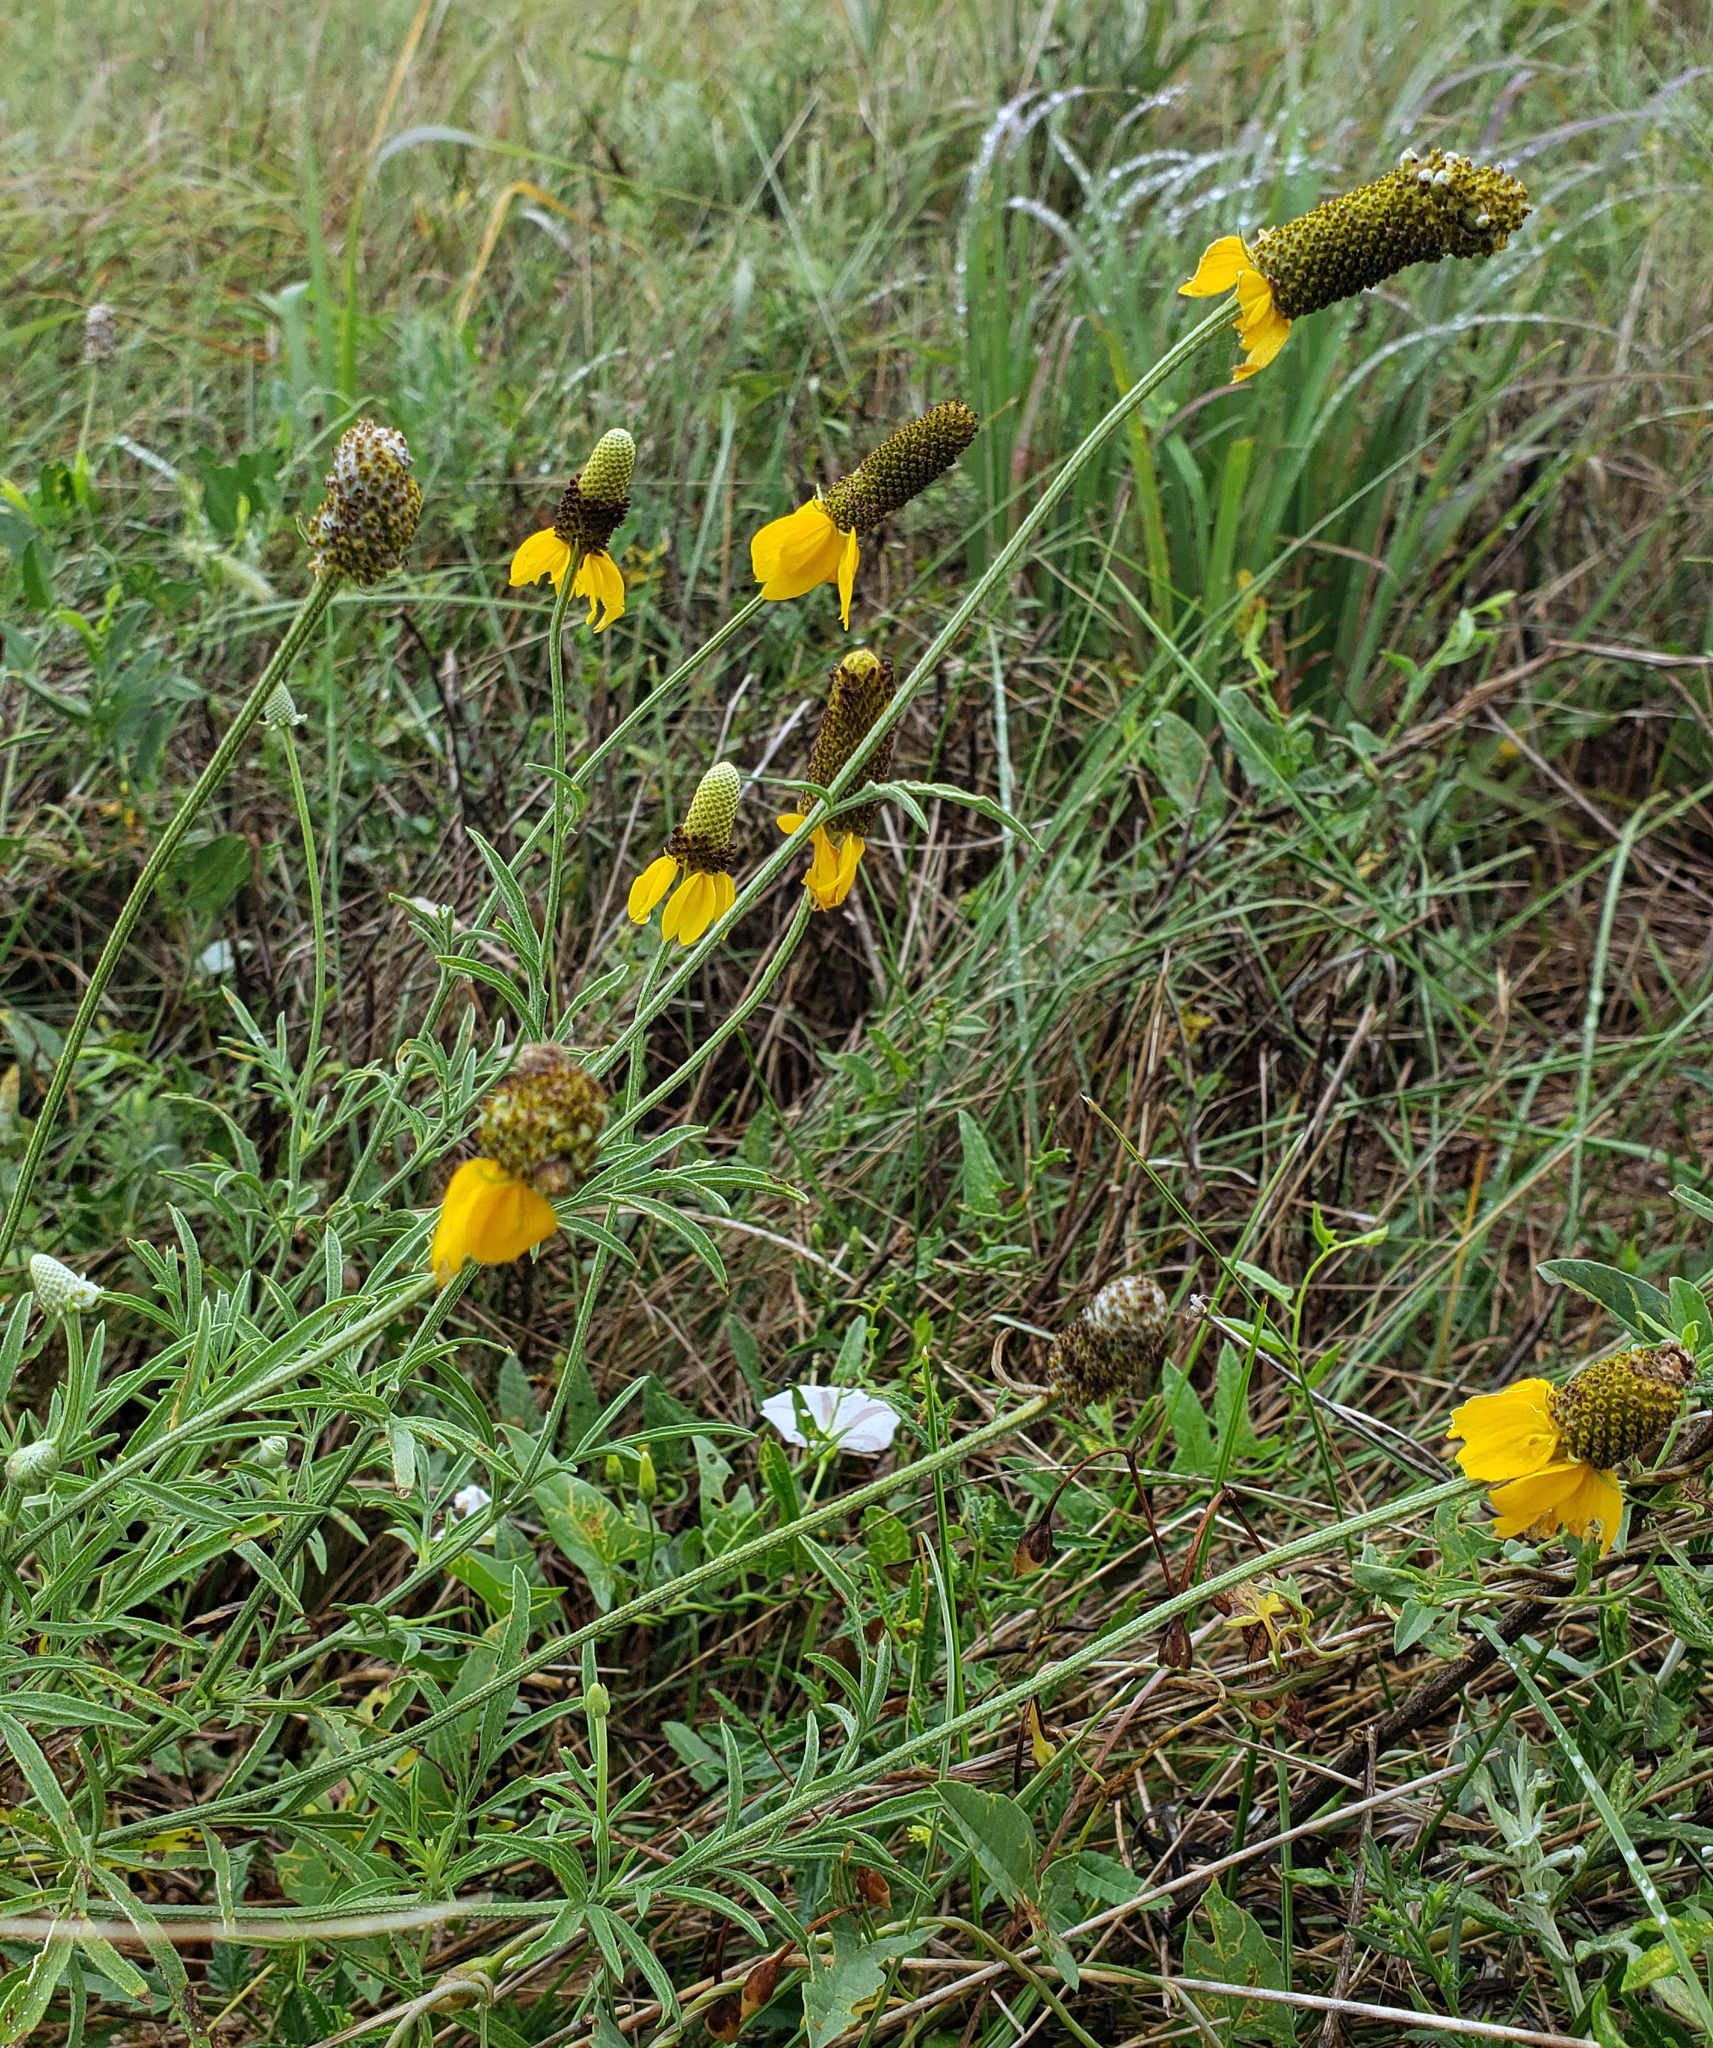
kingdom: Plantae
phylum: Tracheophyta
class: Magnoliopsida
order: Asterales
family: Asteraceae
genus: Ratibida
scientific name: Ratibida columnifera
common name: Prairie coneflower
